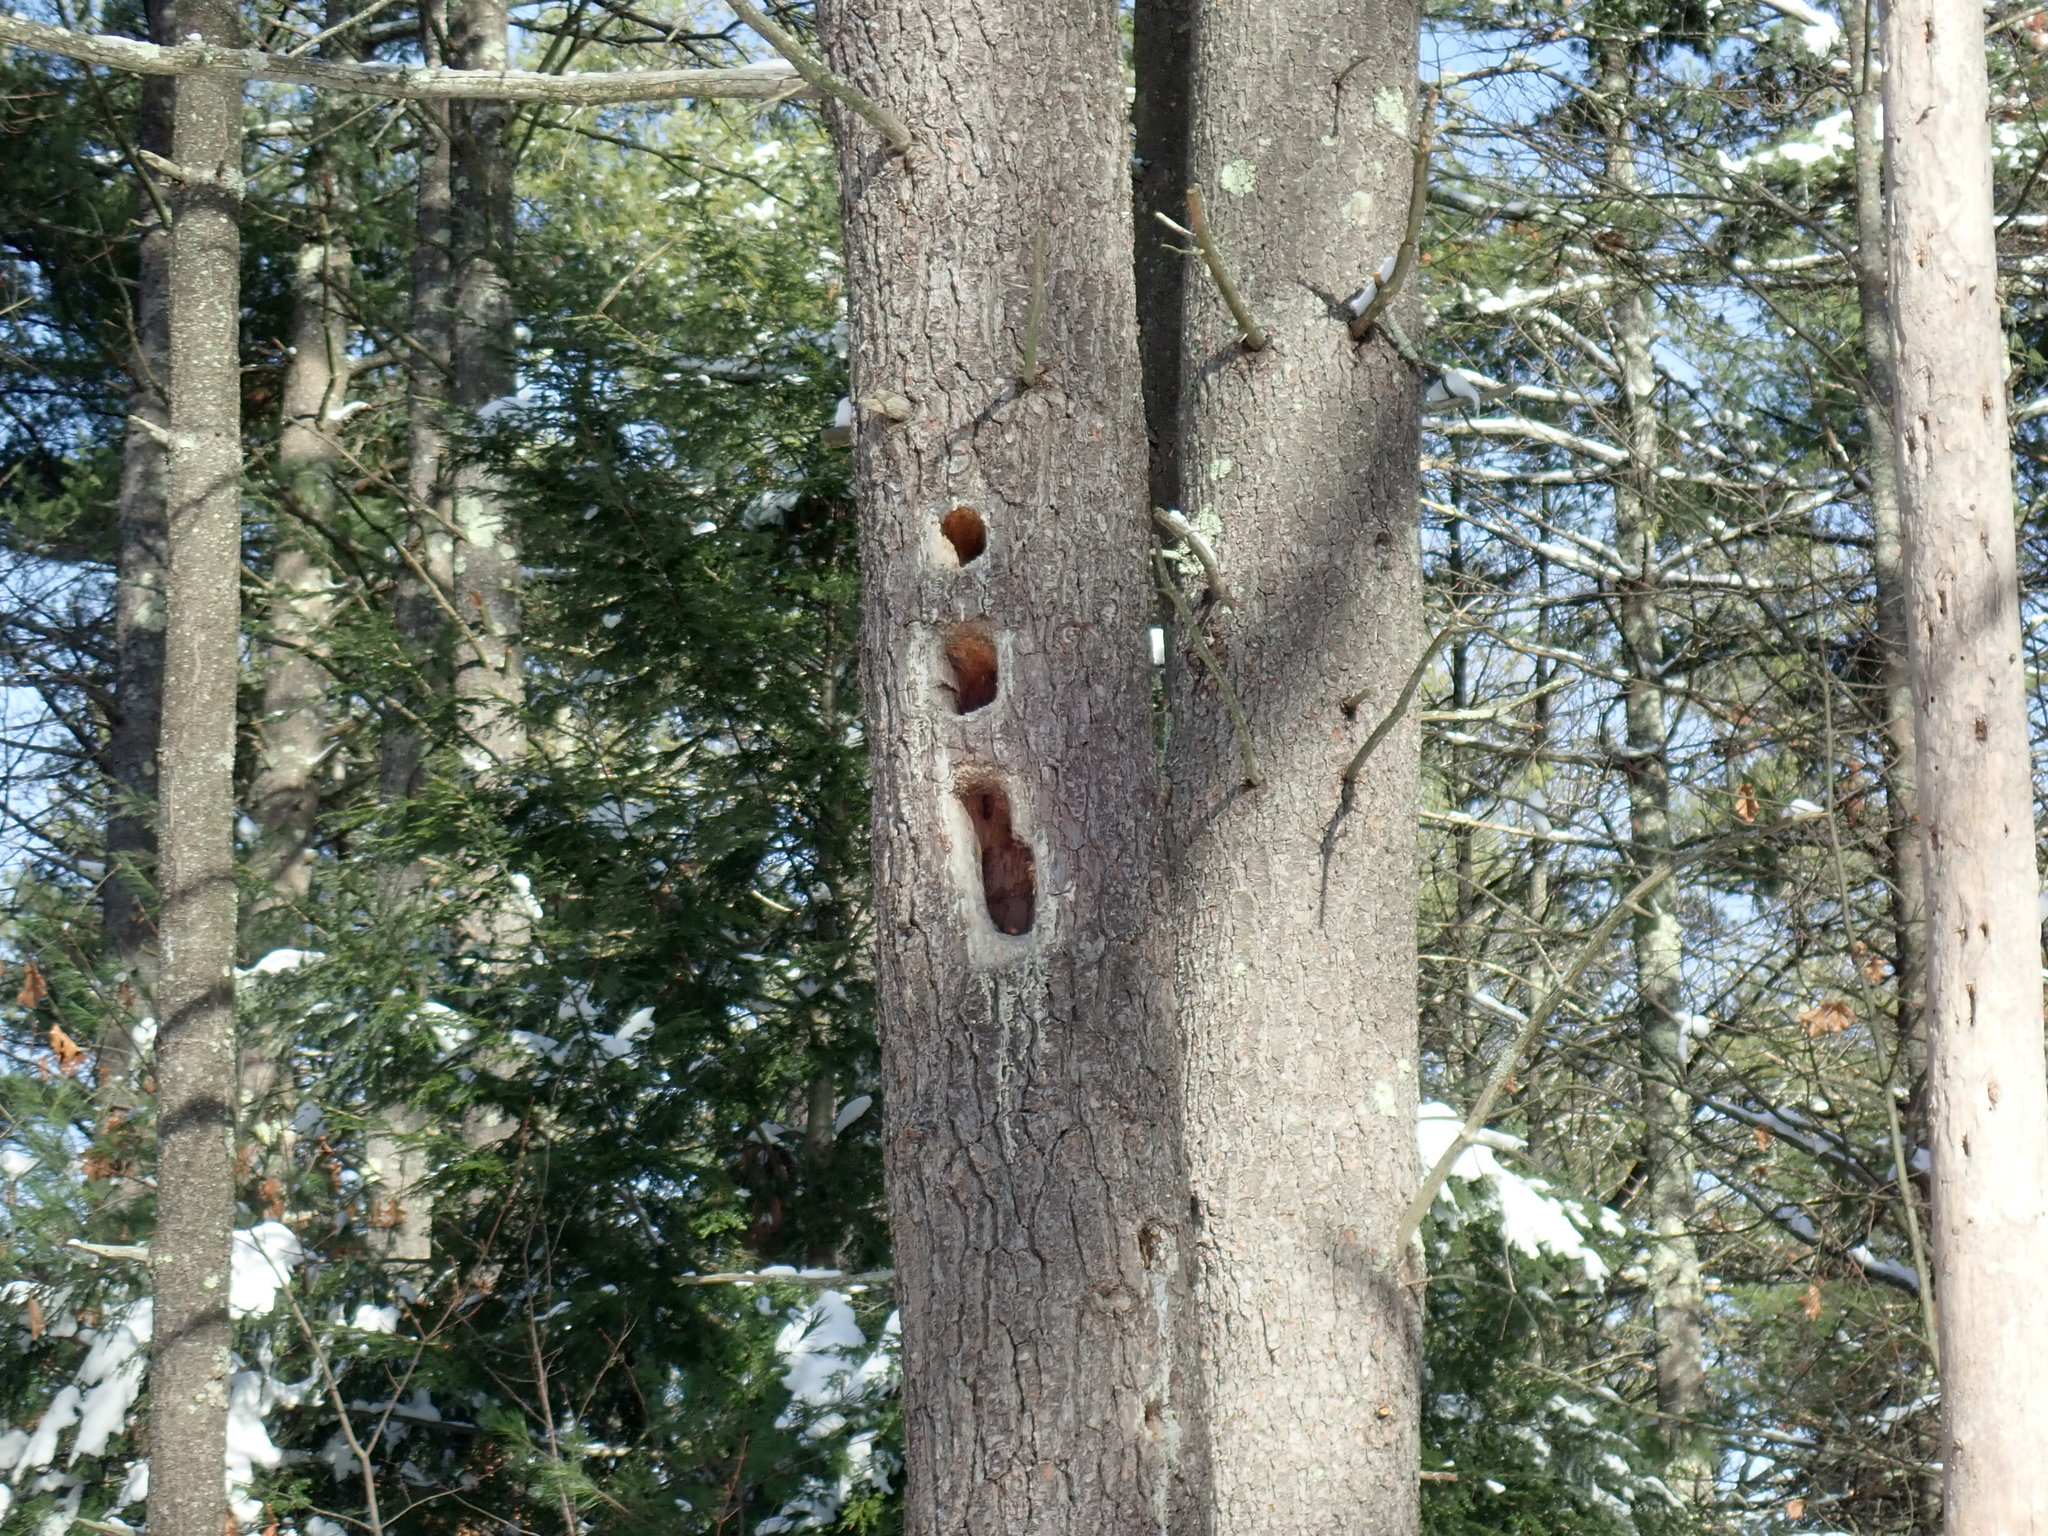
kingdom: Animalia
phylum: Chordata
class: Aves
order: Piciformes
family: Picidae
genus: Dryocopus
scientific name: Dryocopus pileatus
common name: Pileated woodpecker
